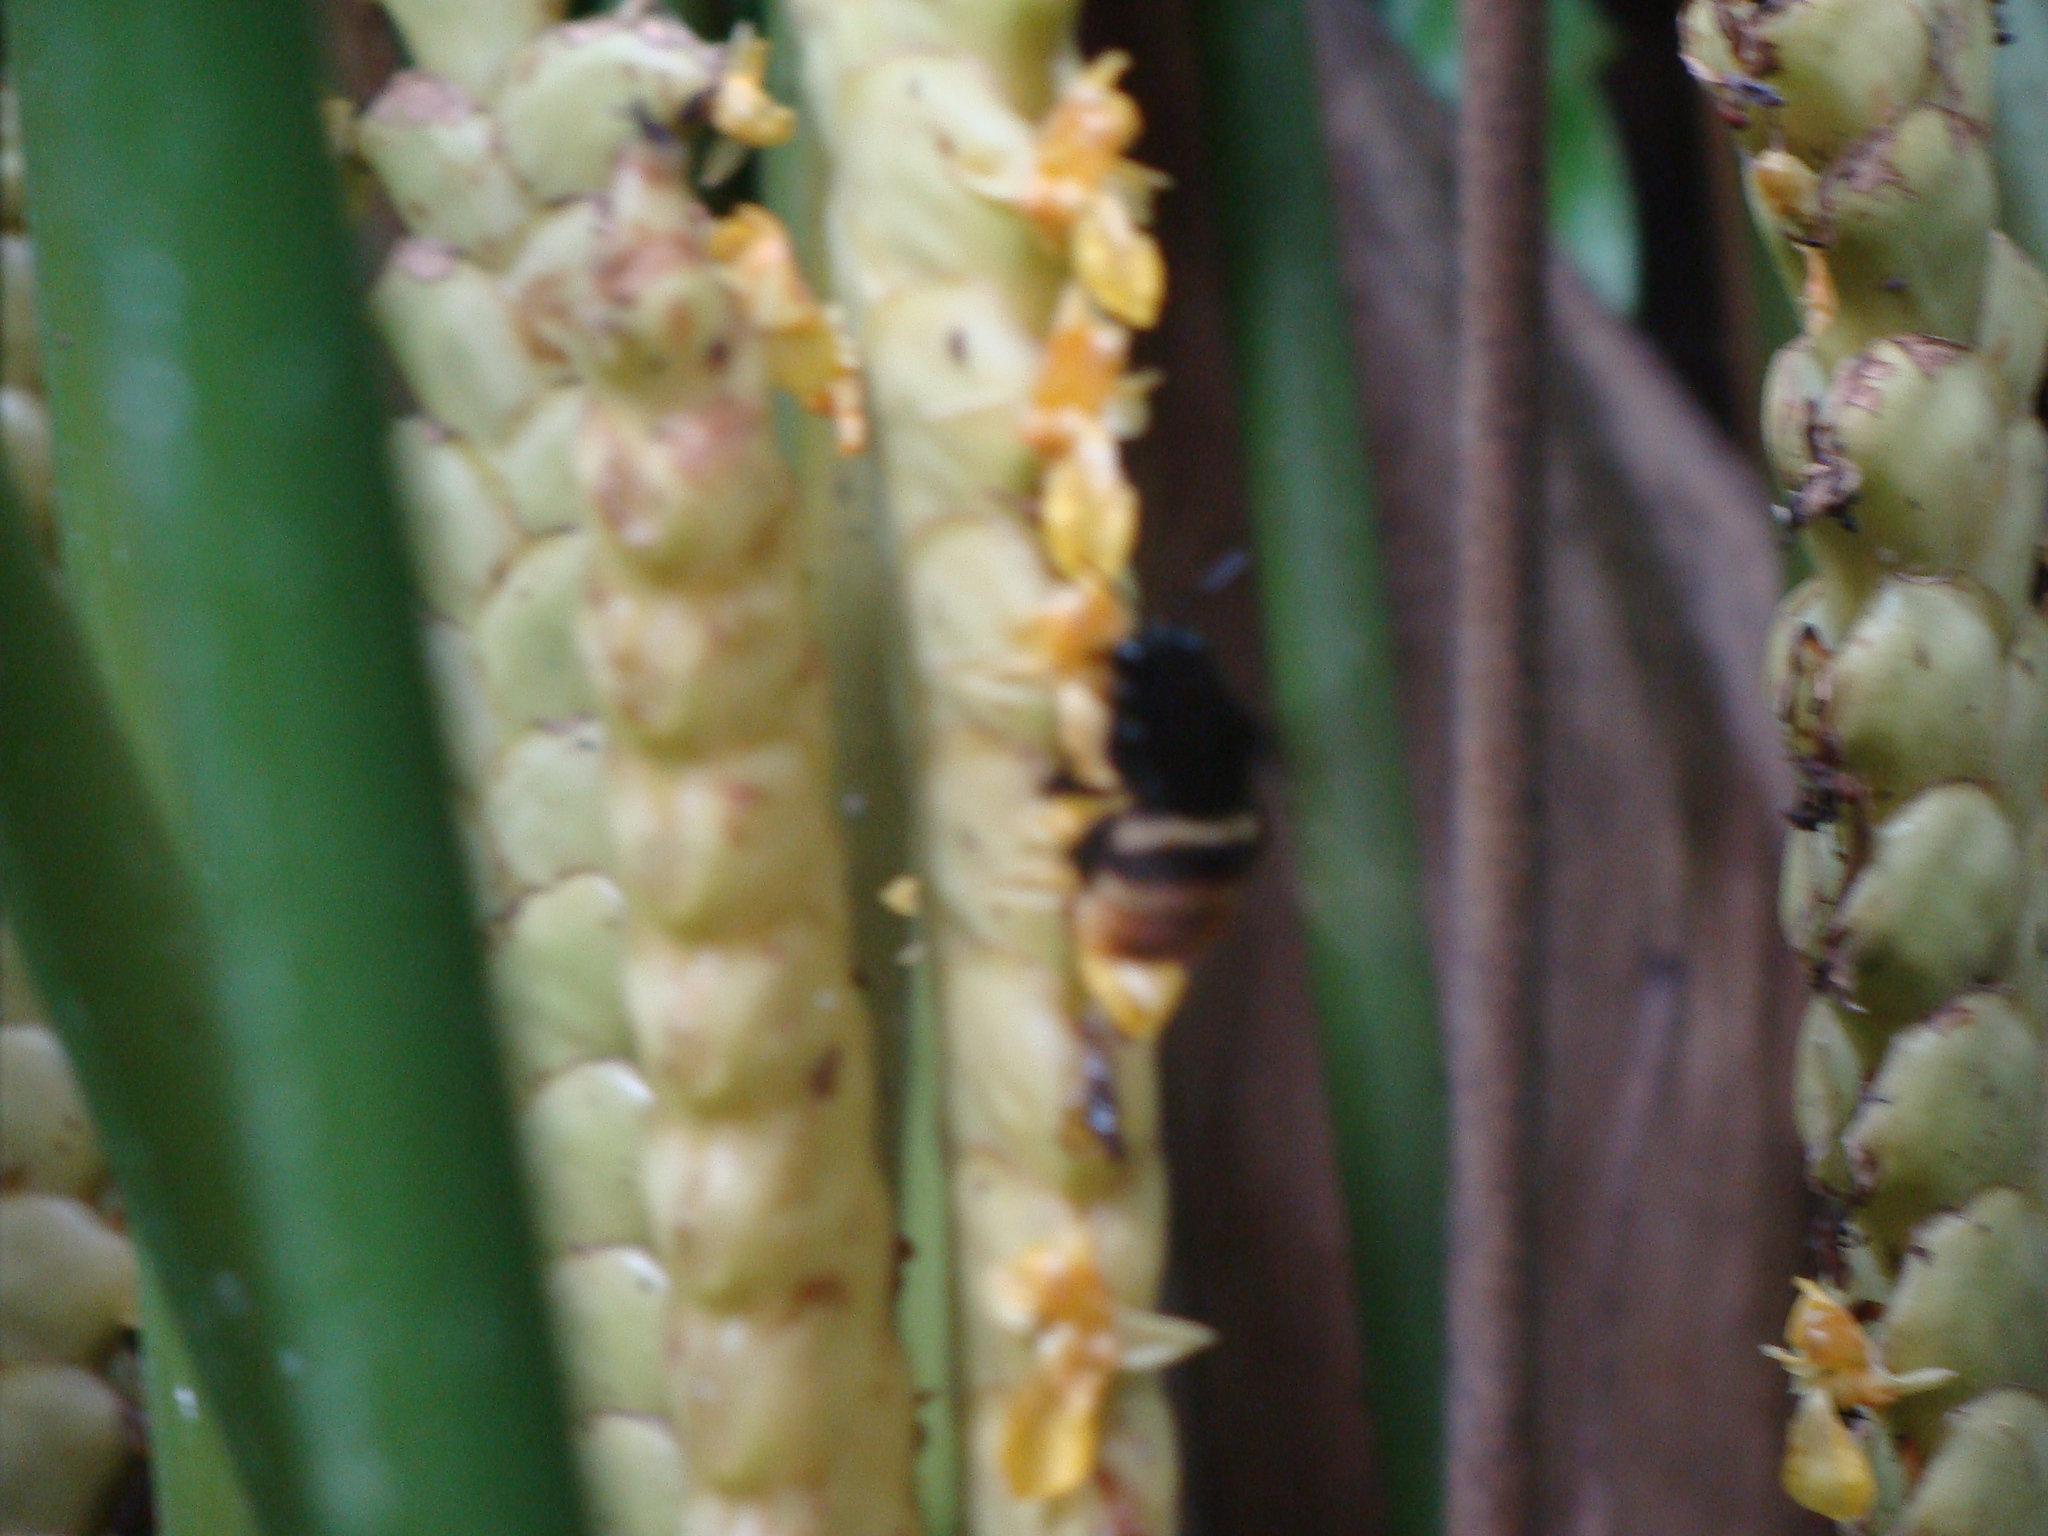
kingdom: Plantae
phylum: Tracheophyta
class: Liliopsida
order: Zingiberales
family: Marantaceae
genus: Calathea
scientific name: Calathea crotalifera
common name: Rattlesnake plant
